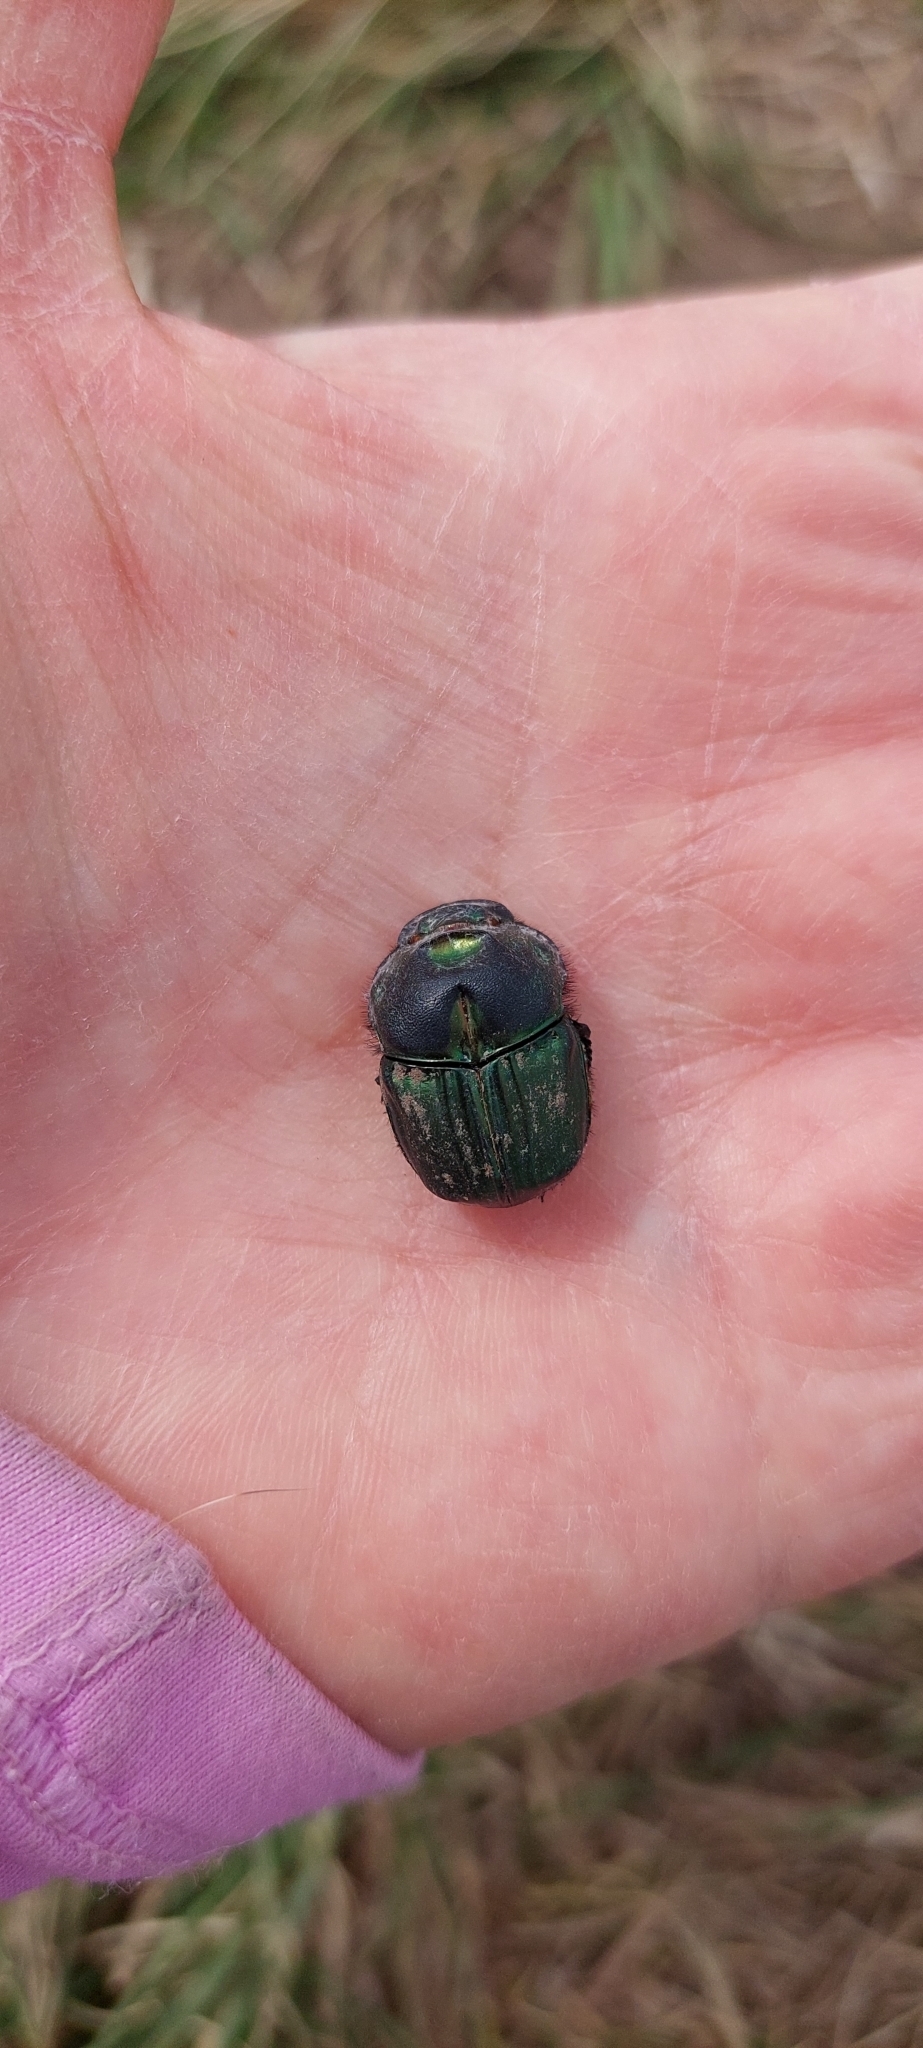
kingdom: Animalia
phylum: Arthropoda
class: Insecta
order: Coleoptera
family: Scarabaeidae
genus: Sulcophanaeus
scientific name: Sulcophanaeus menelas
